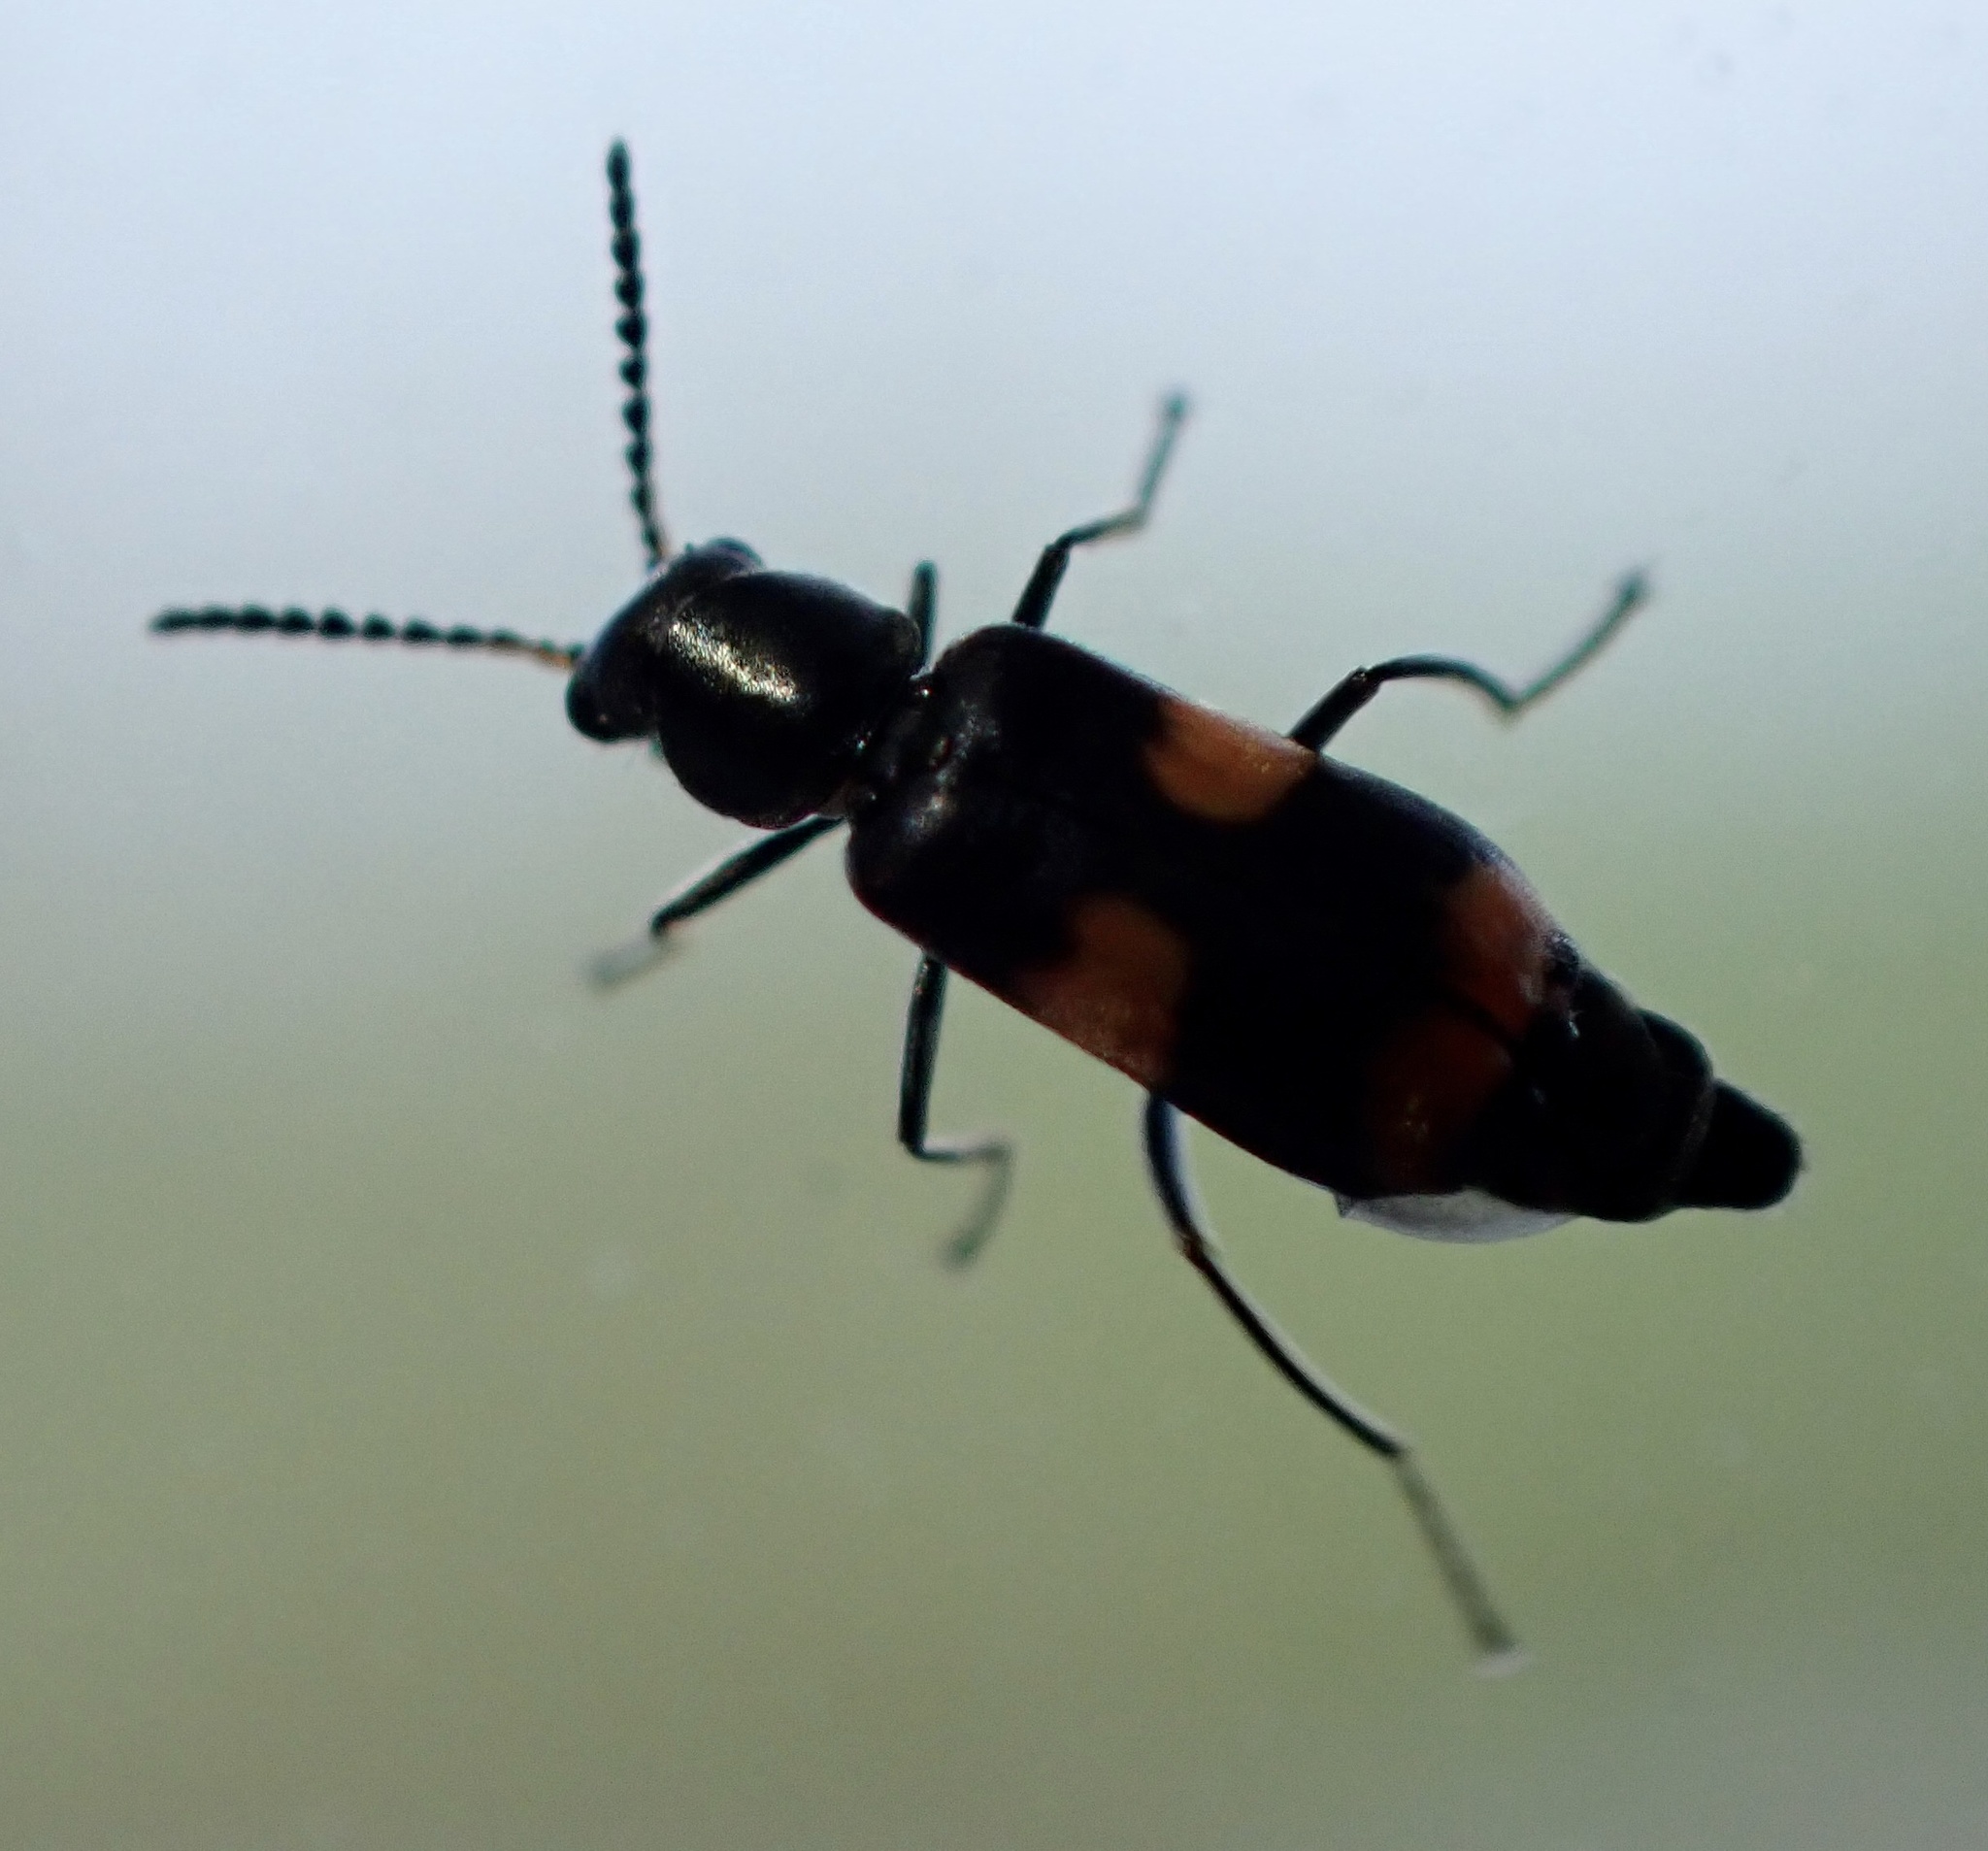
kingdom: Animalia
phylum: Arthropoda
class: Insecta
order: Coleoptera
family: Melyridae
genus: Anthocomus
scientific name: Anthocomus fasciatus
